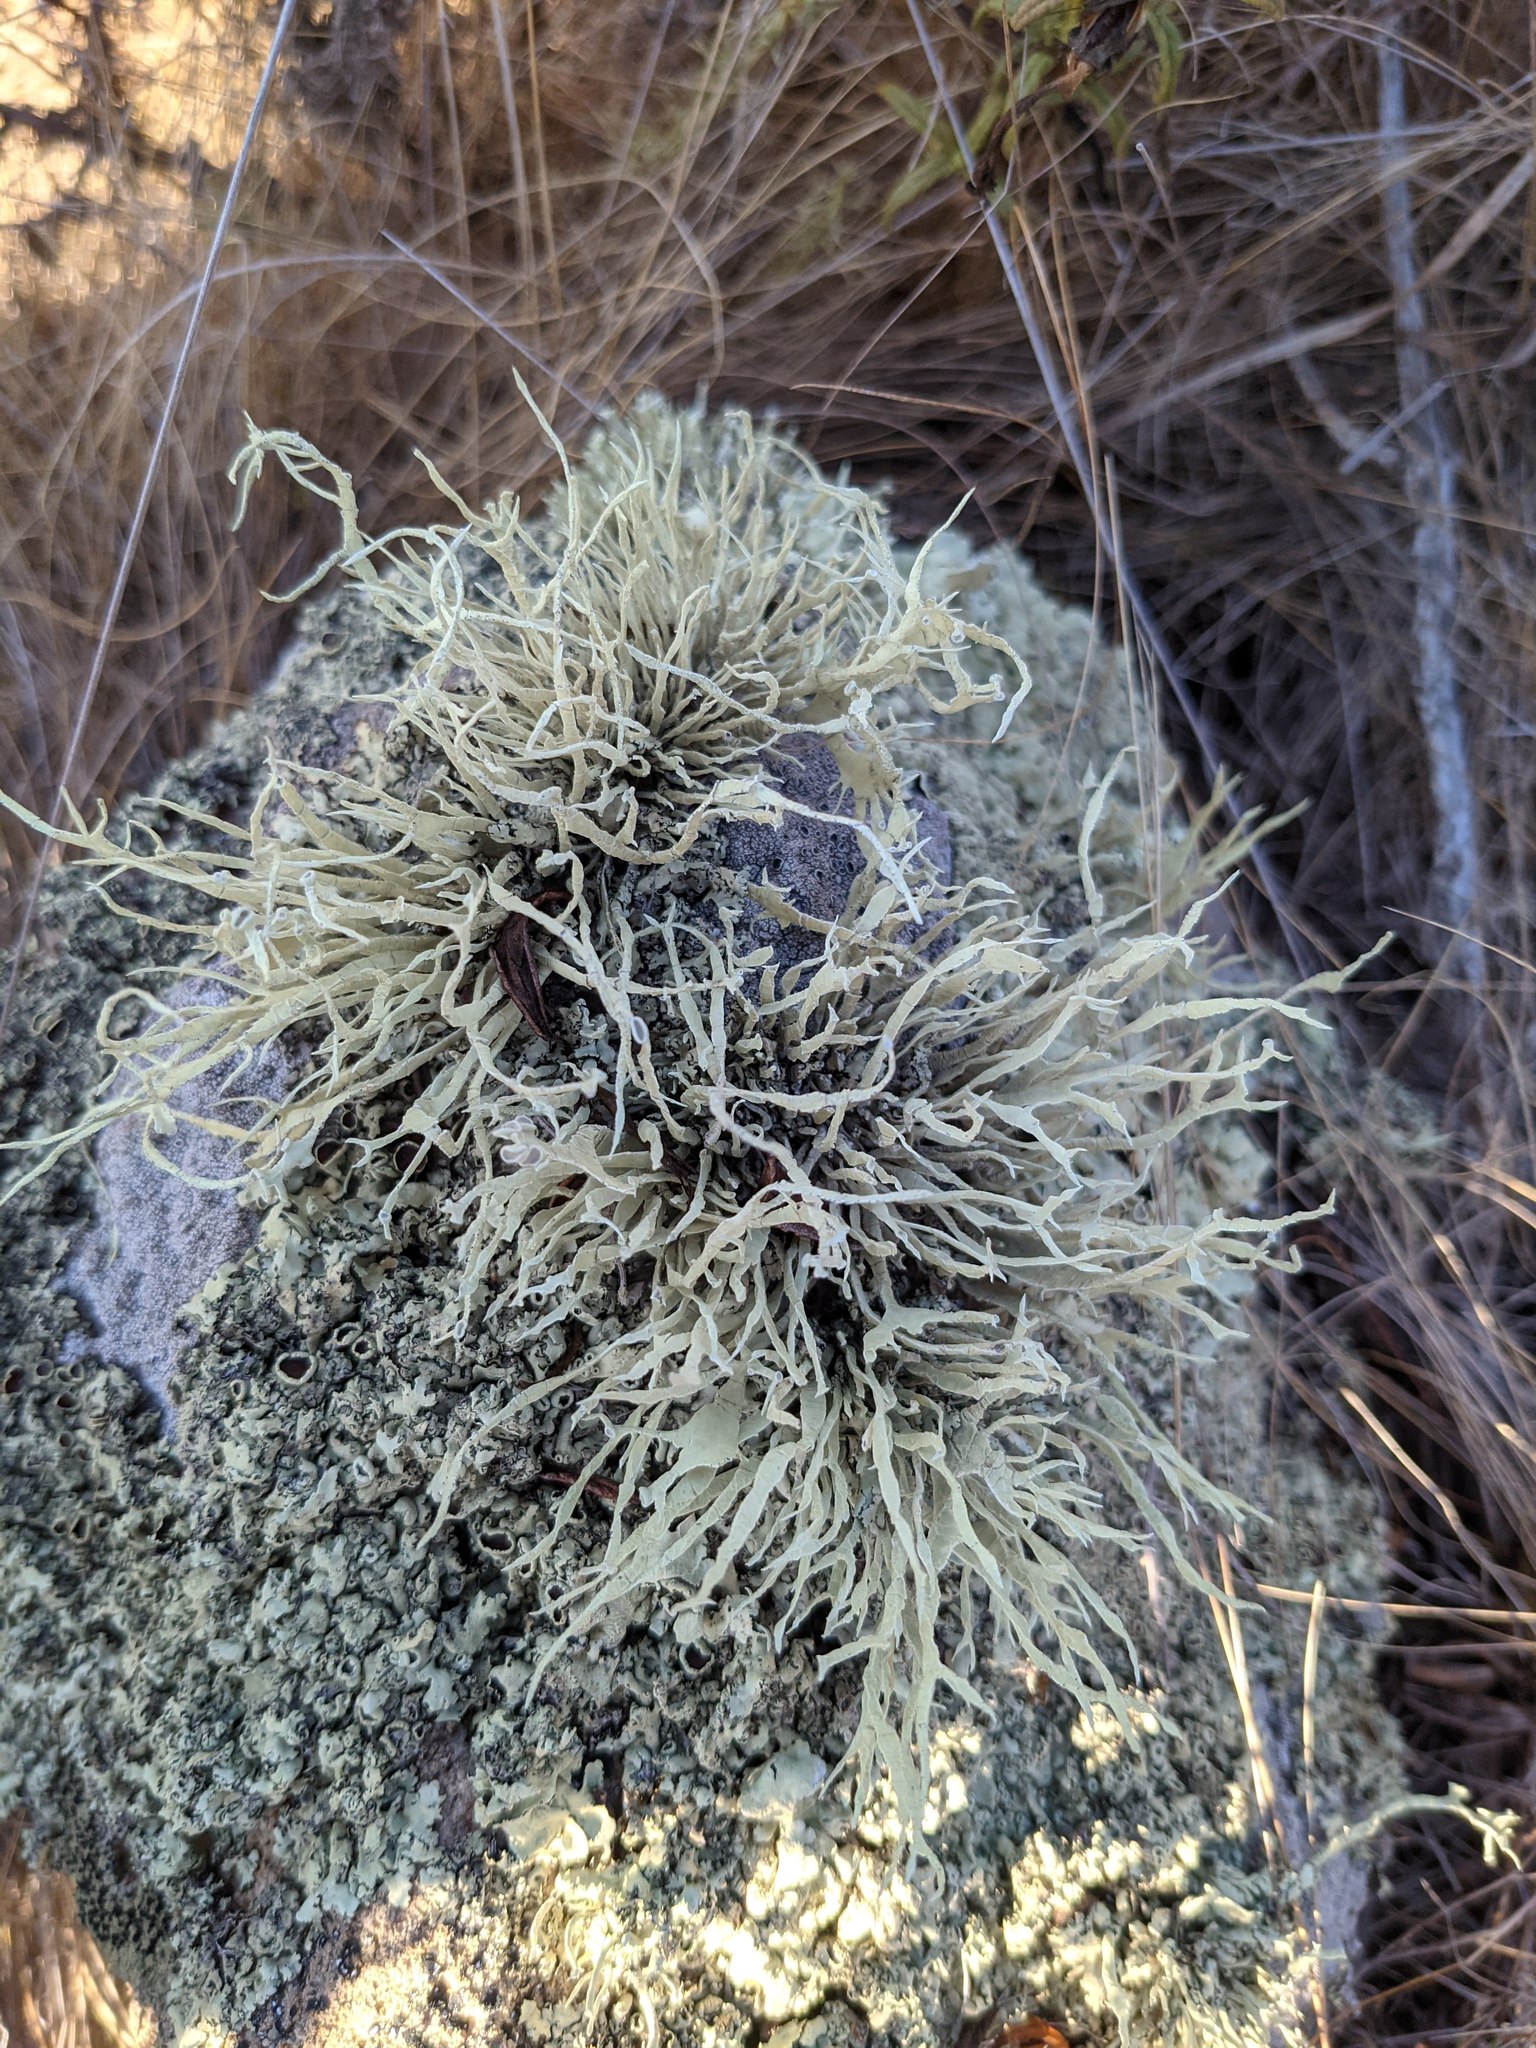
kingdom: Fungi
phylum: Ascomycota
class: Lecanoromycetes
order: Lecanorales
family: Ramalinaceae
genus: Niebla
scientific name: Niebla homalea
